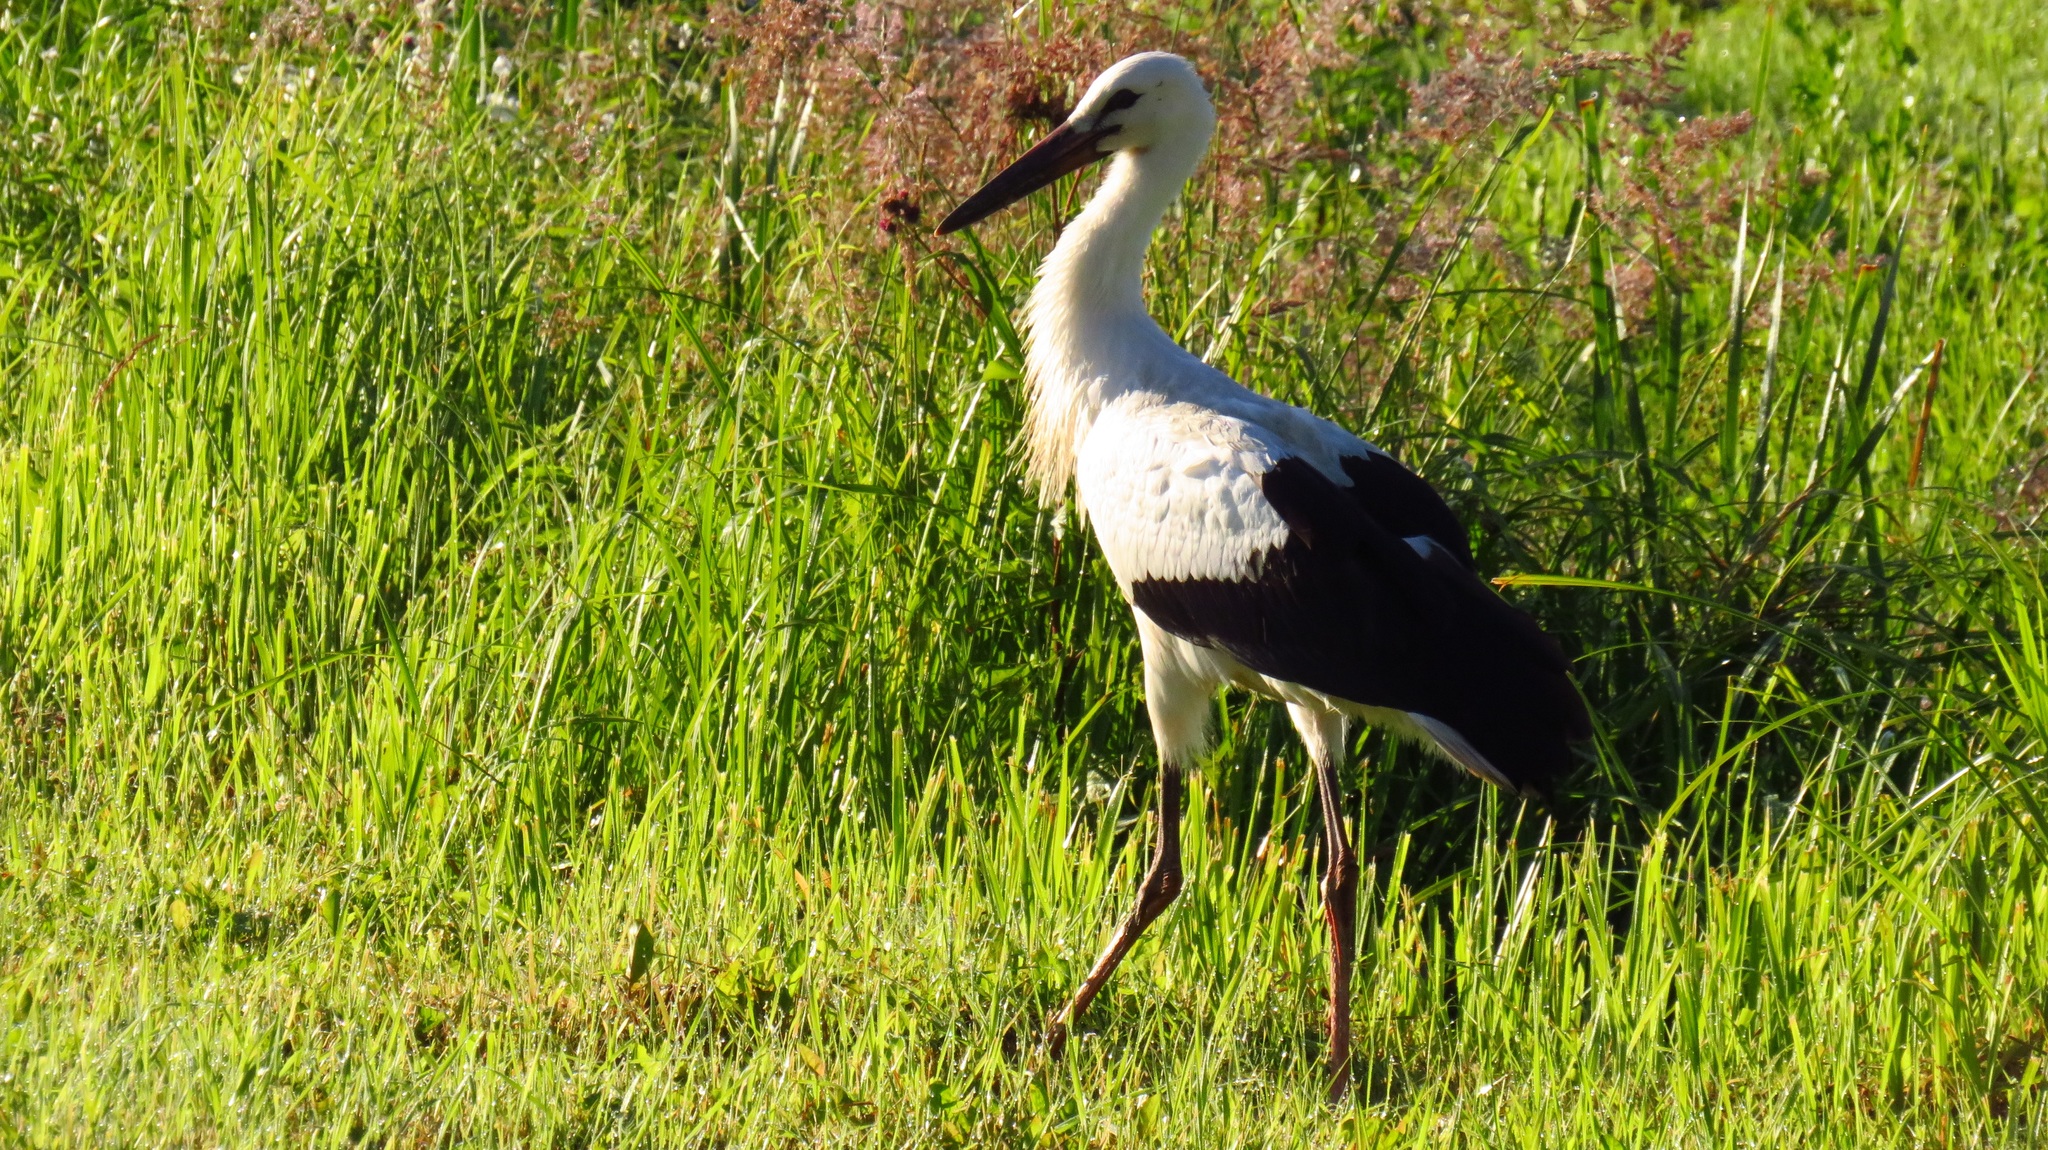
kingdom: Animalia
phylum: Chordata
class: Aves
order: Ciconiiformes
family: Ciconiidae
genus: Ciconia
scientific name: Ciconia ciconia
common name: White stork
